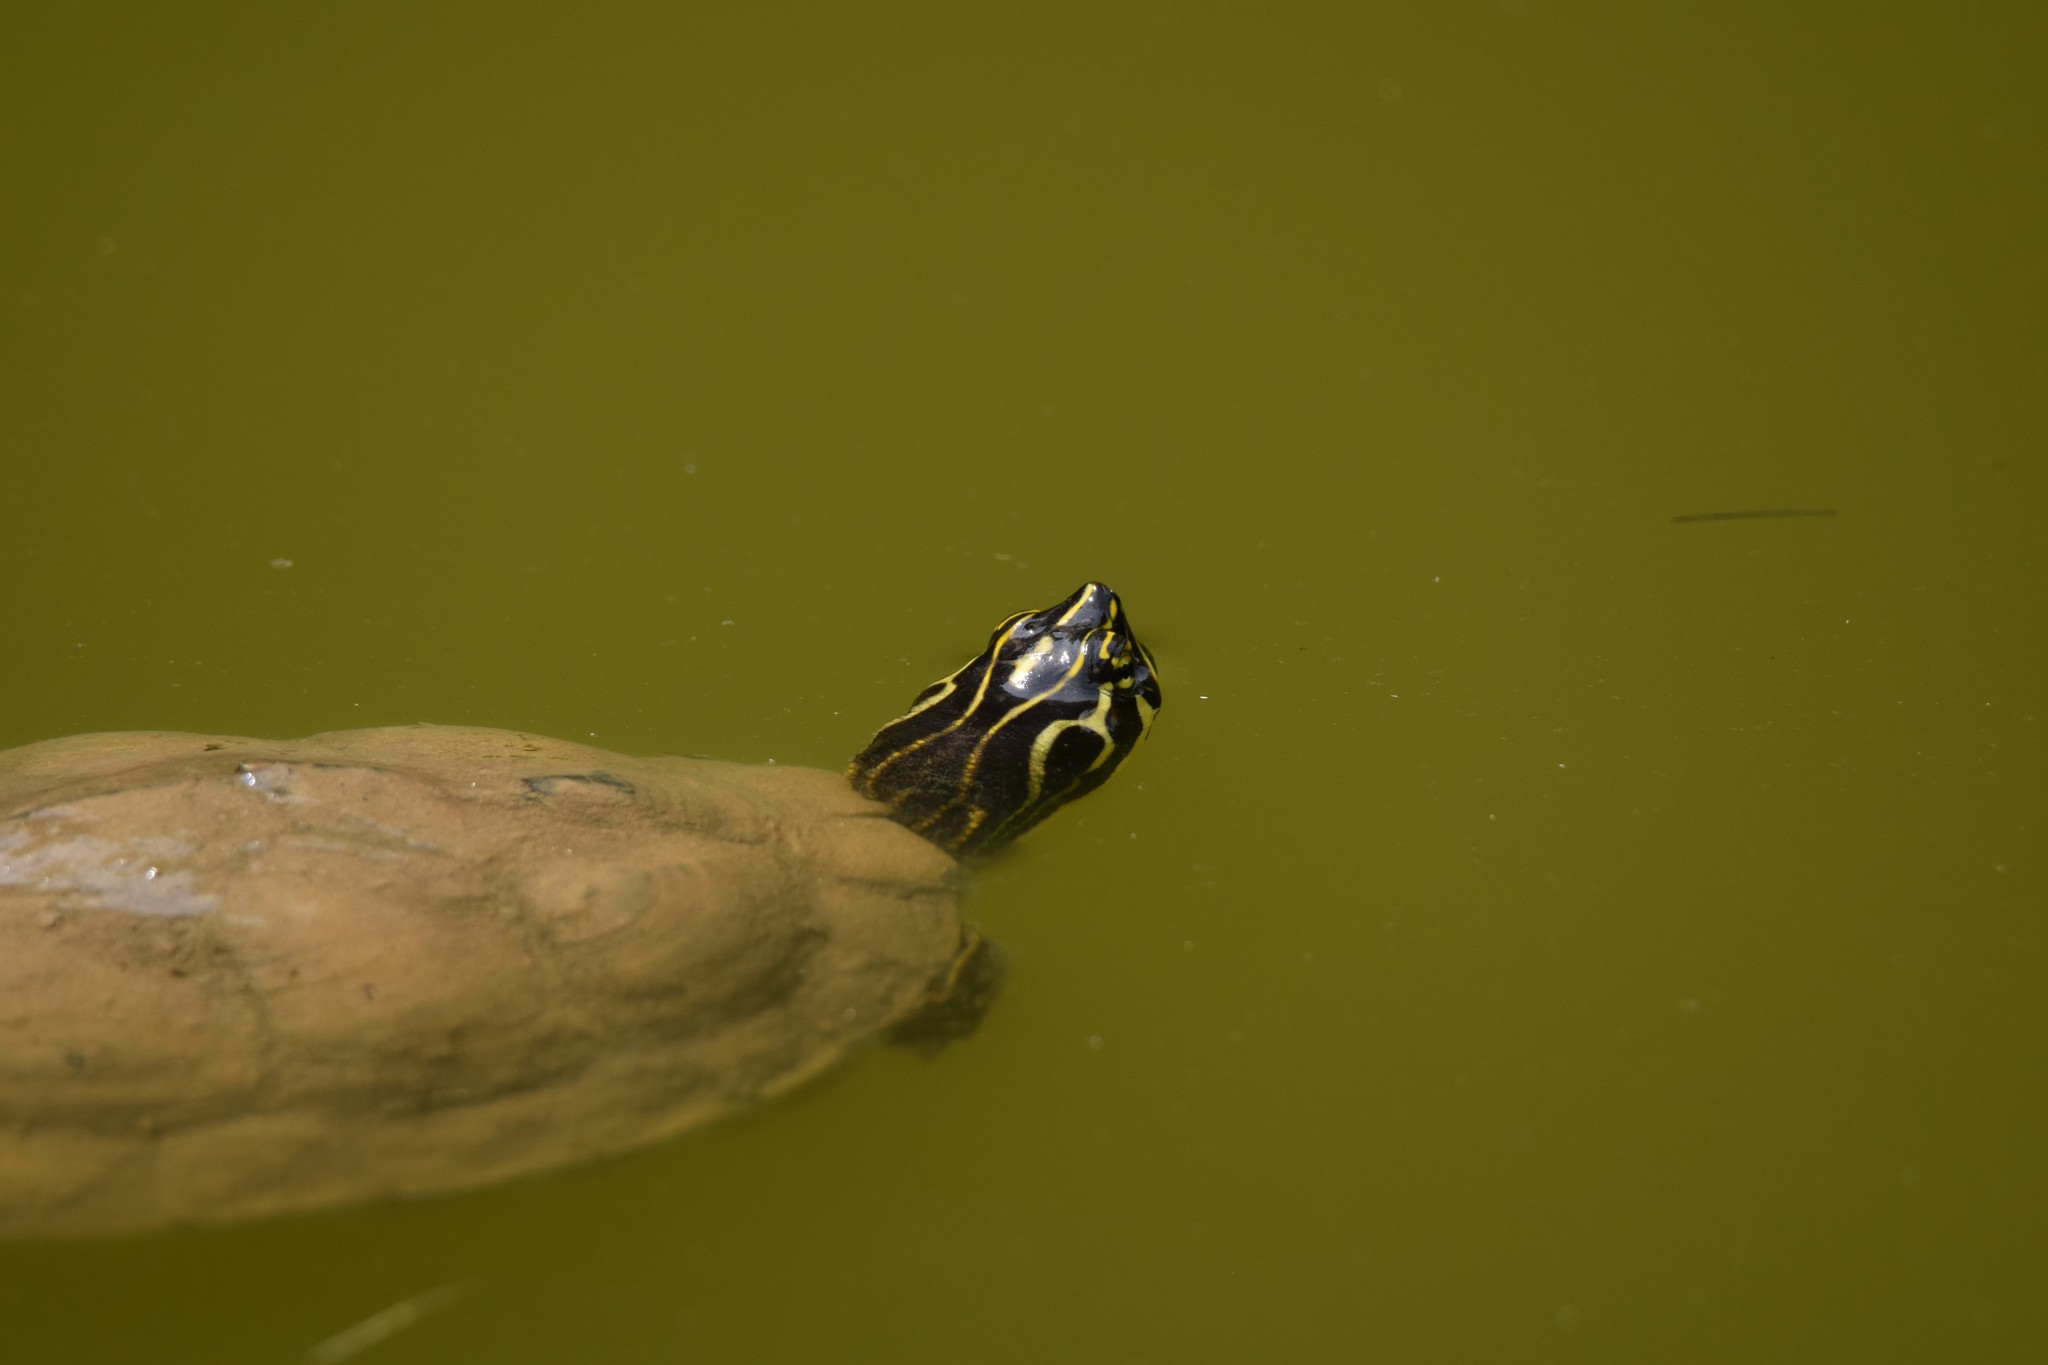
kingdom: Animalia
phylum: Chordata
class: Testudines
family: Emydidae
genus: Pseudemys
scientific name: Pseudemys concinna
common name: Eastern river cooter
